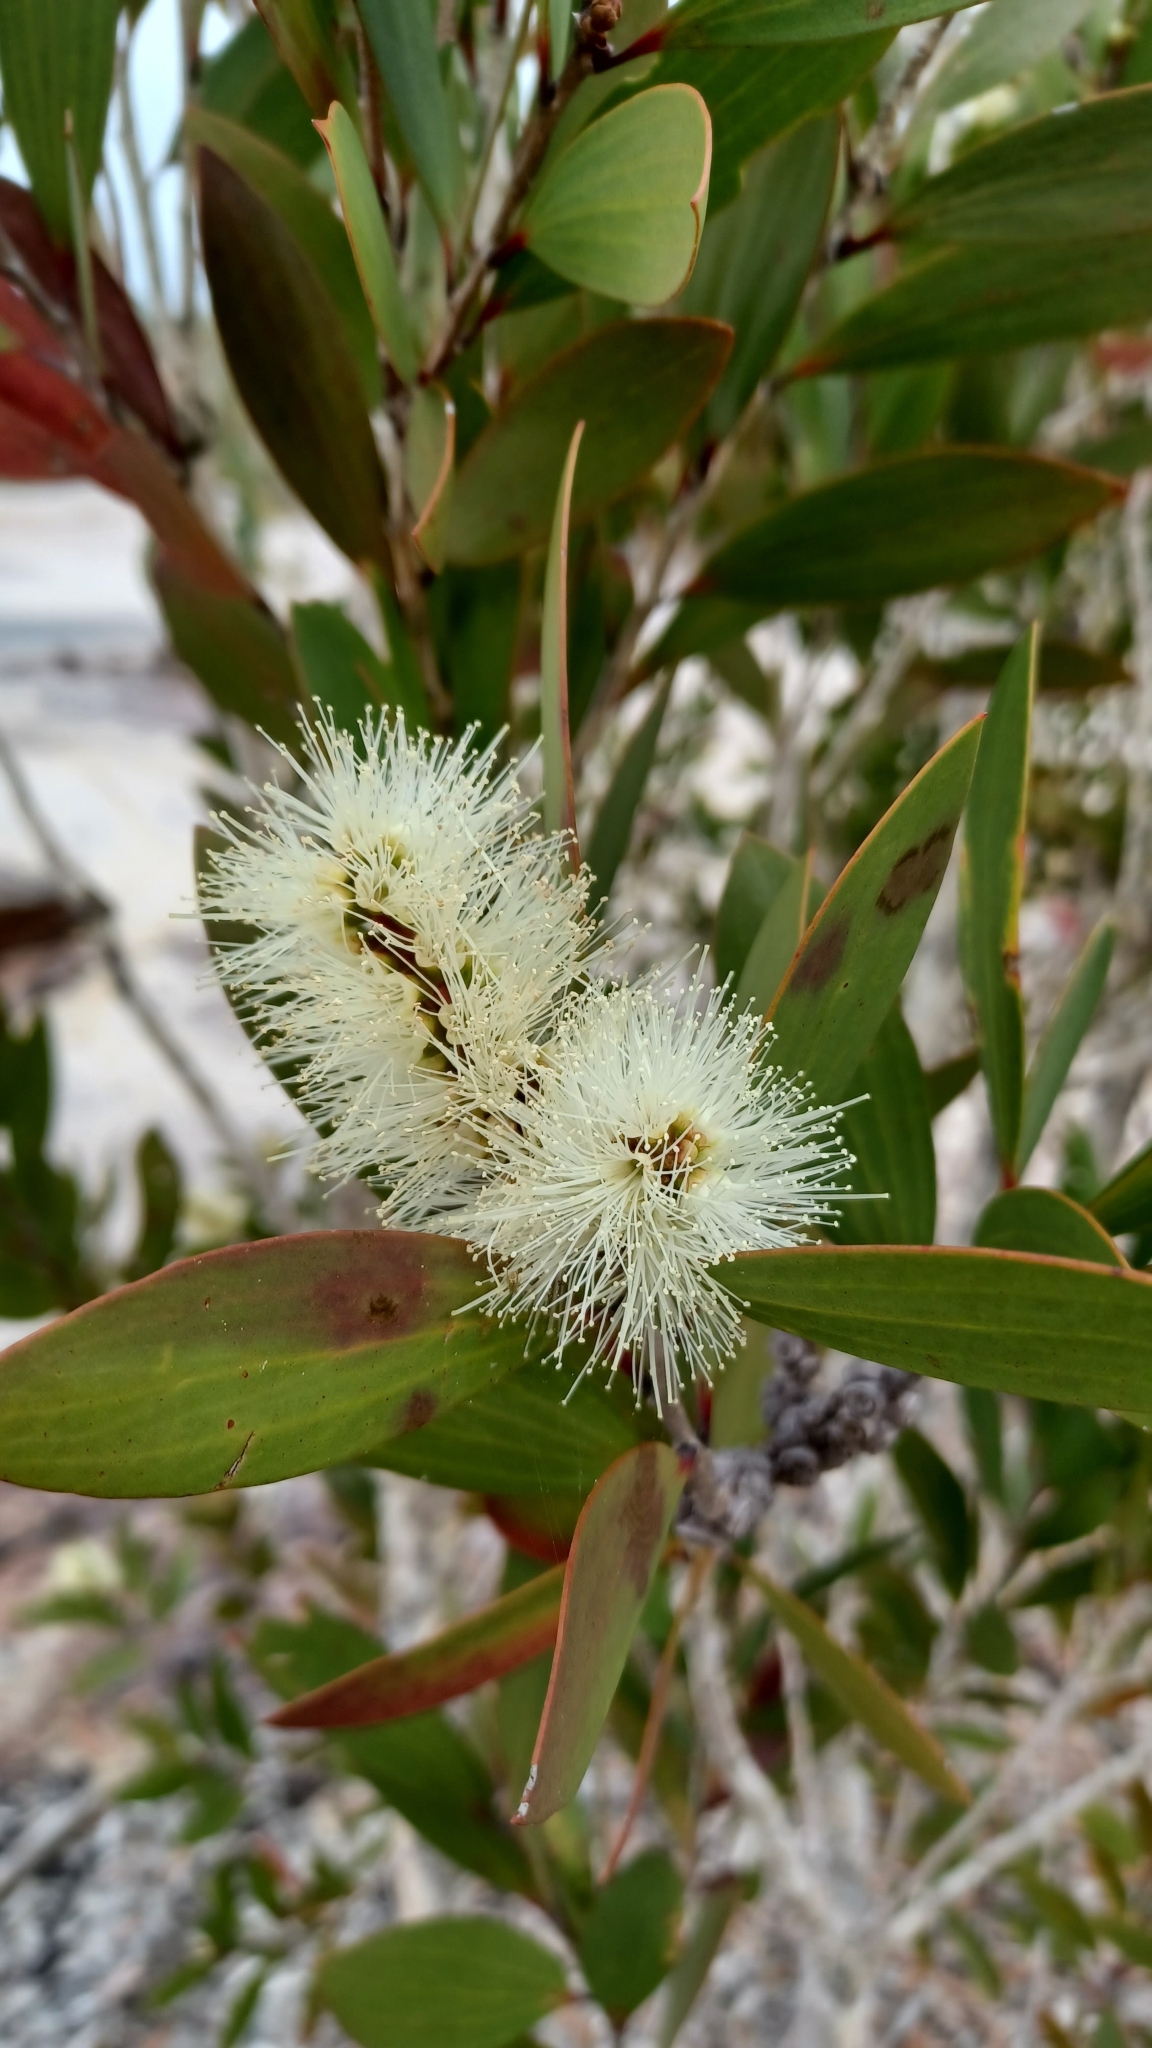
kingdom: Plantae
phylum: Tracheophyta
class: Magnoliopsida
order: Myrtales
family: Myrtaceae
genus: Melaleuca
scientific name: Melaleuca quinquenervia
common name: Punktree
